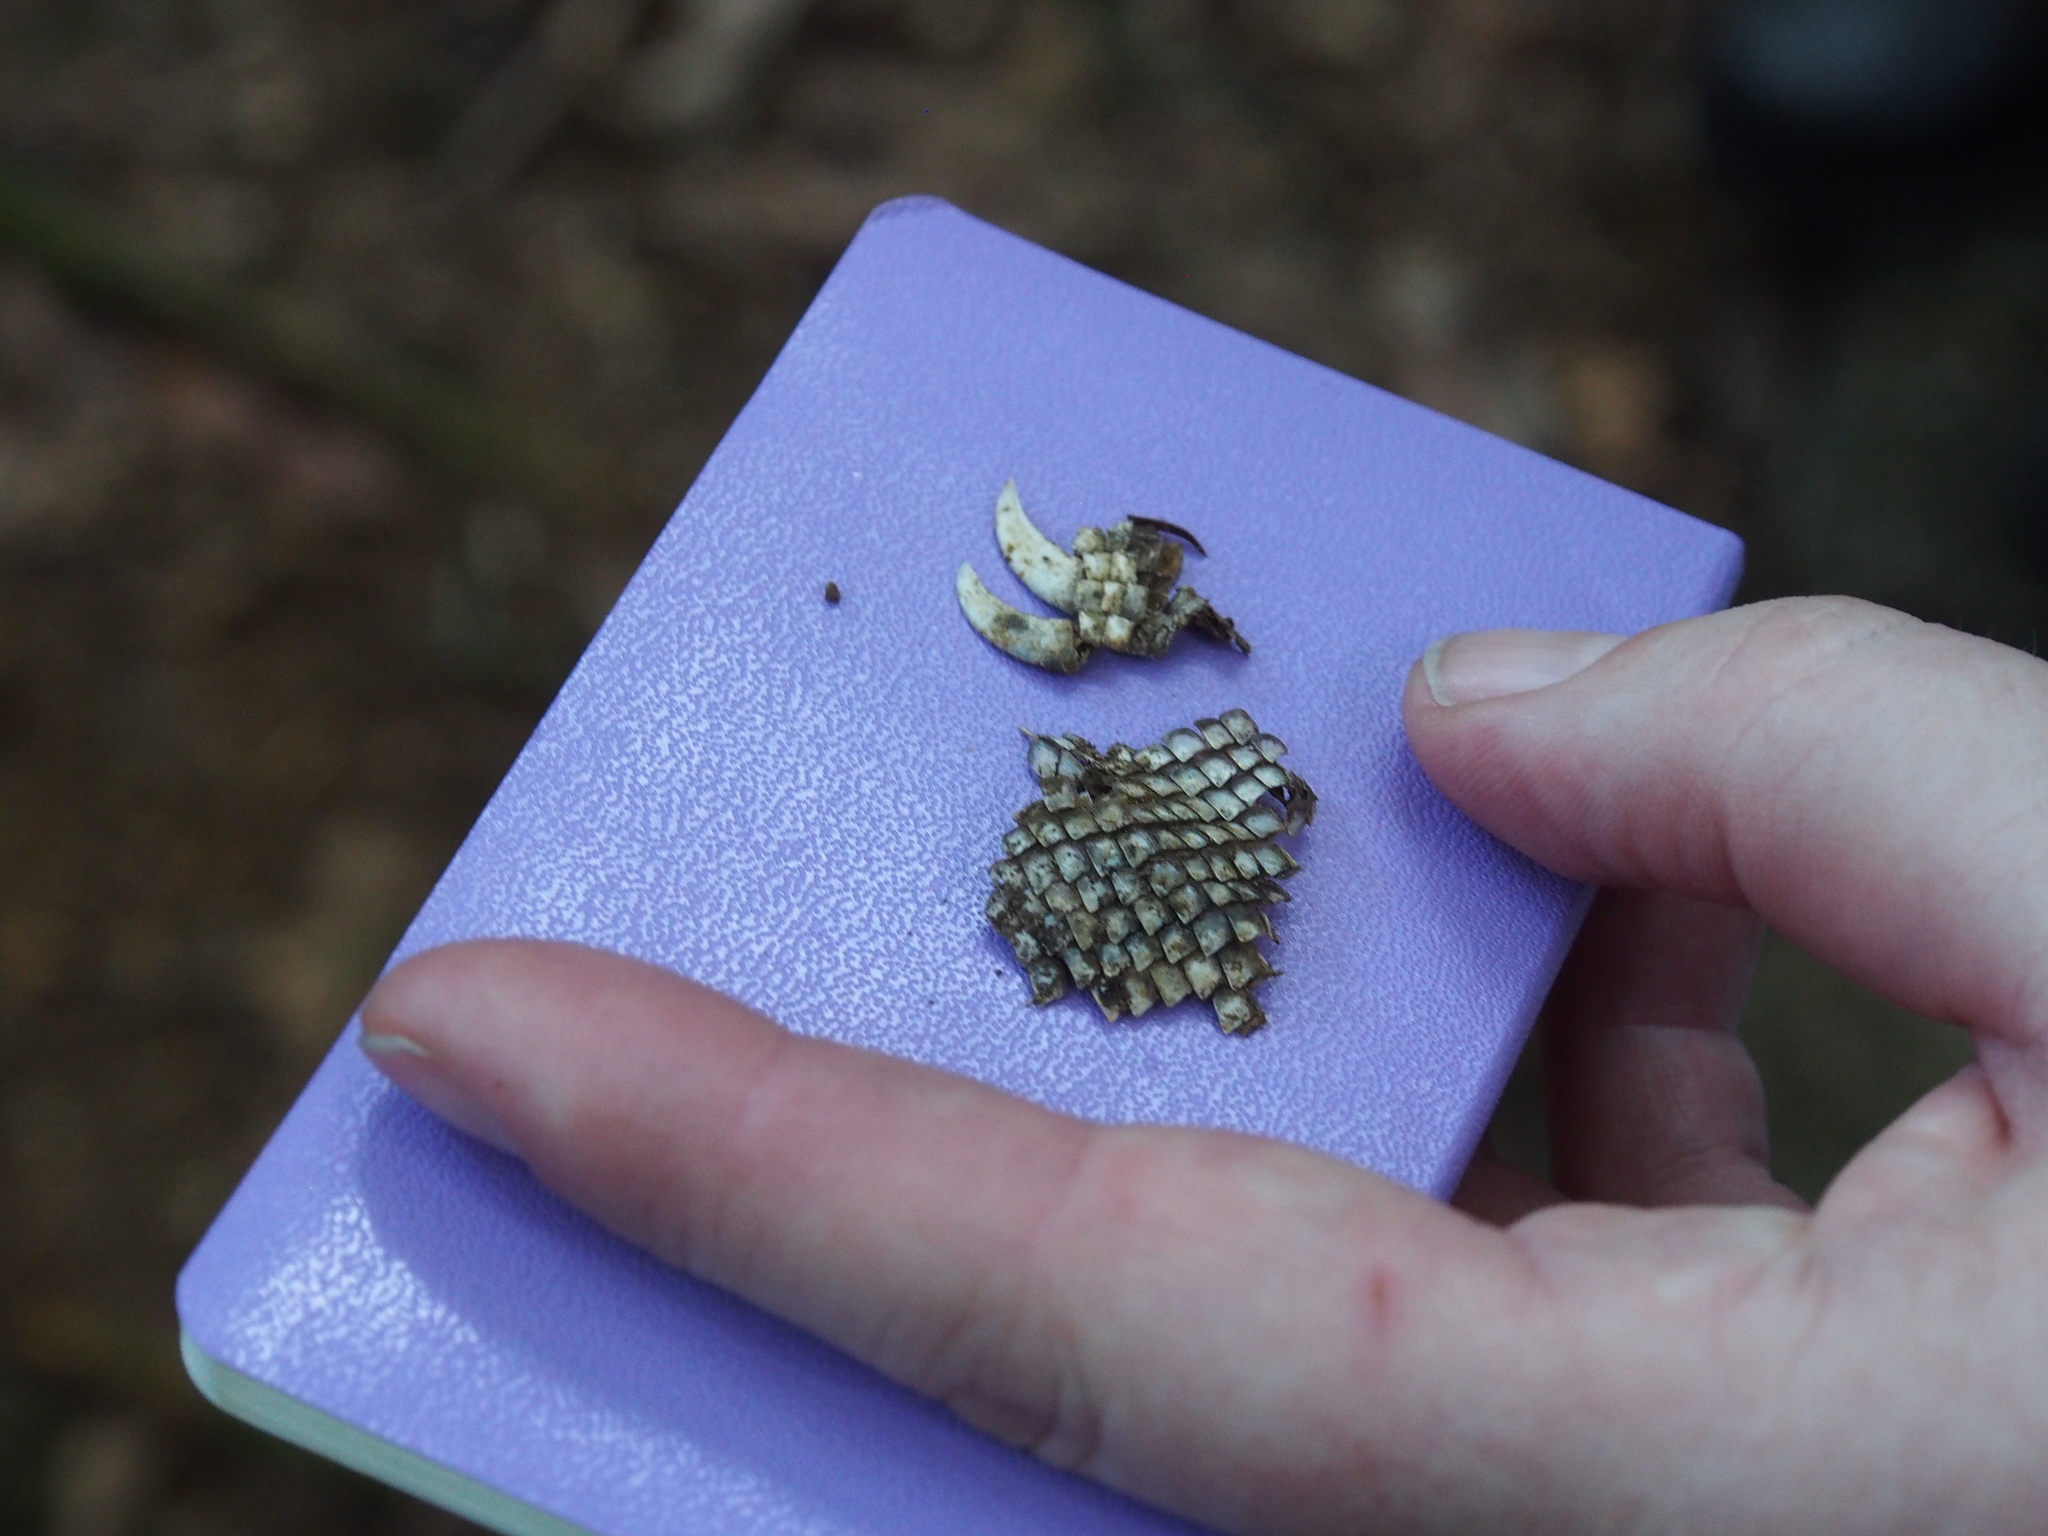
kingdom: Animalia
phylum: Chordata
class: Squamata
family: Iguanidae
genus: Iguana
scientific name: Iguana iguana
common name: Green iguana
